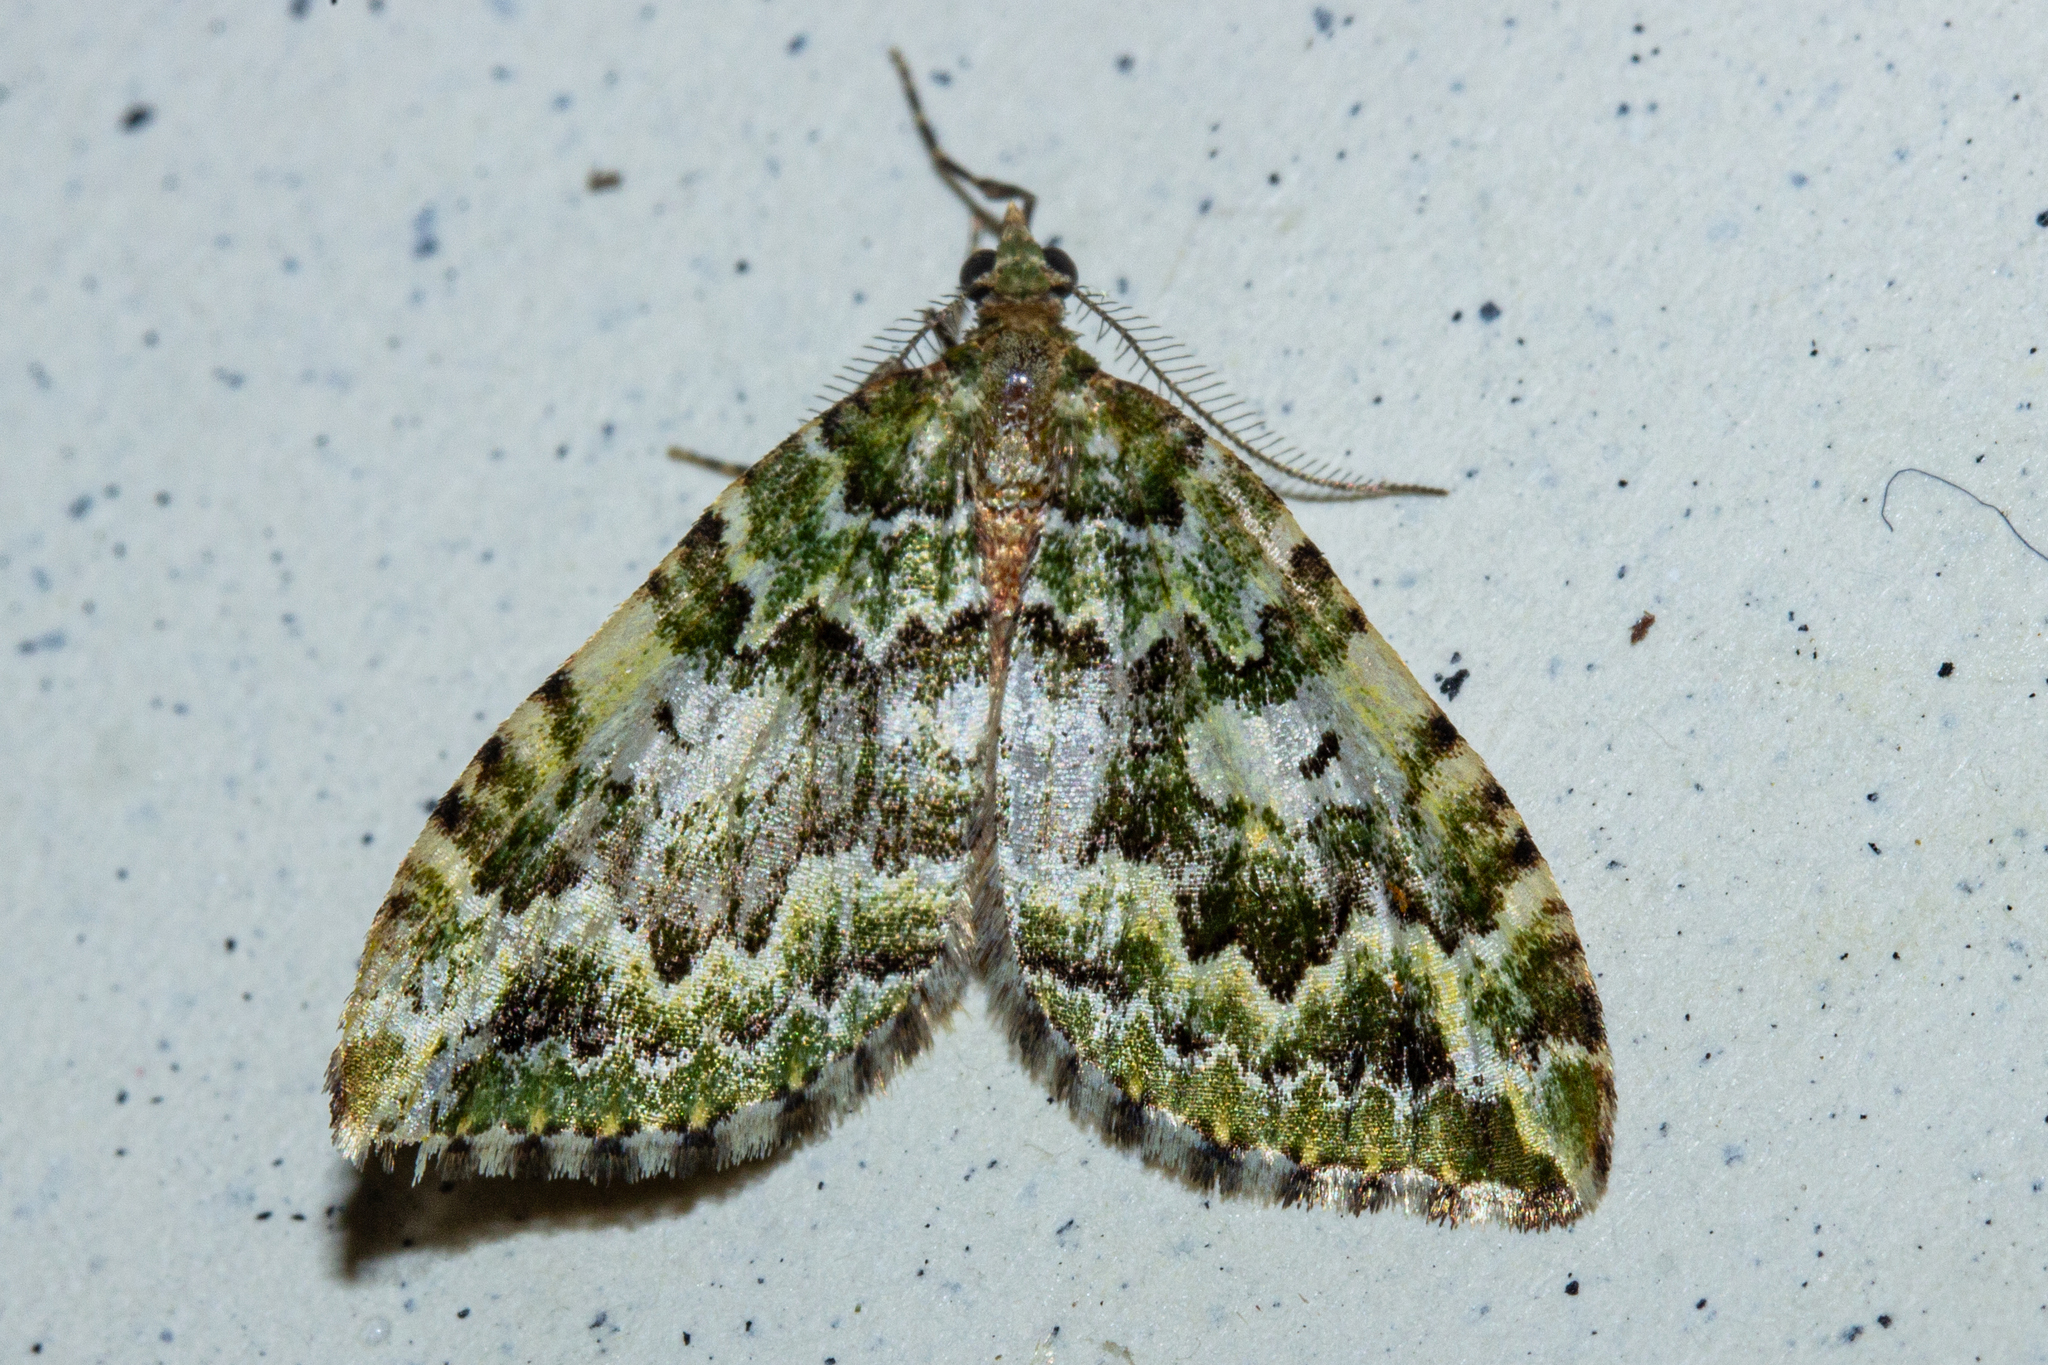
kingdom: Animalia
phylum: Arthropoda
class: Insecta
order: Lepidoptera
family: Geometridae
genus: Asaphodes
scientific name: Asaphodes beata
